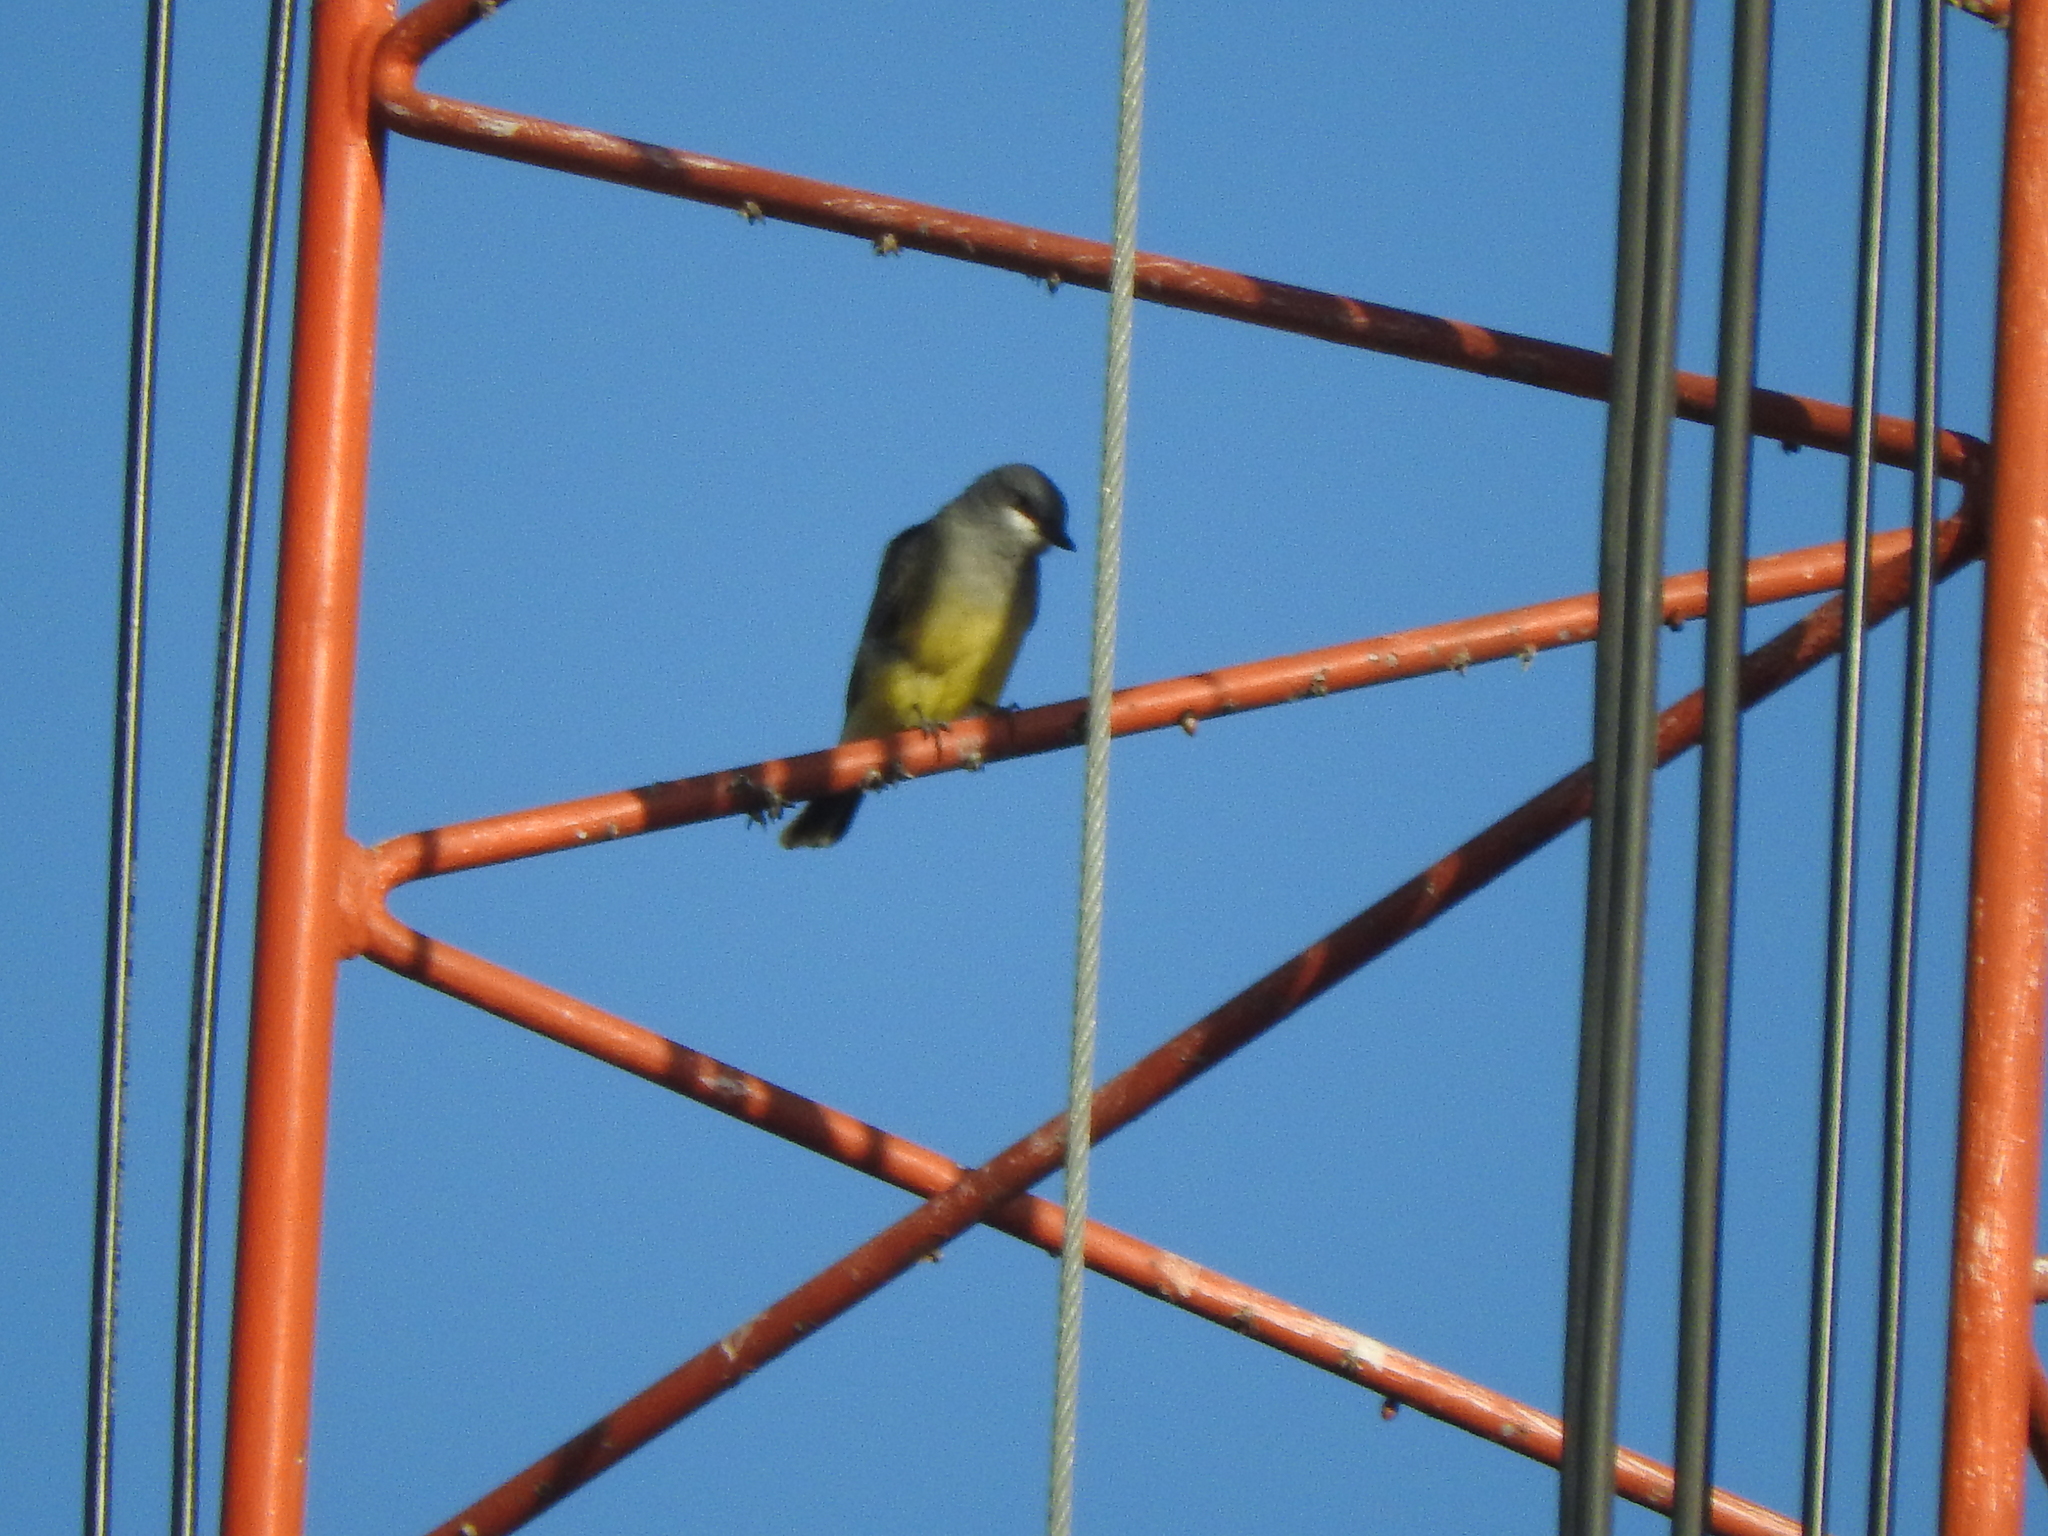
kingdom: Animalia
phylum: Chordata
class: Aves
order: Passeriformes
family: Tyrannidae
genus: Tyrannus
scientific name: Tyrannus vociferans
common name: Cassin's kingbird
